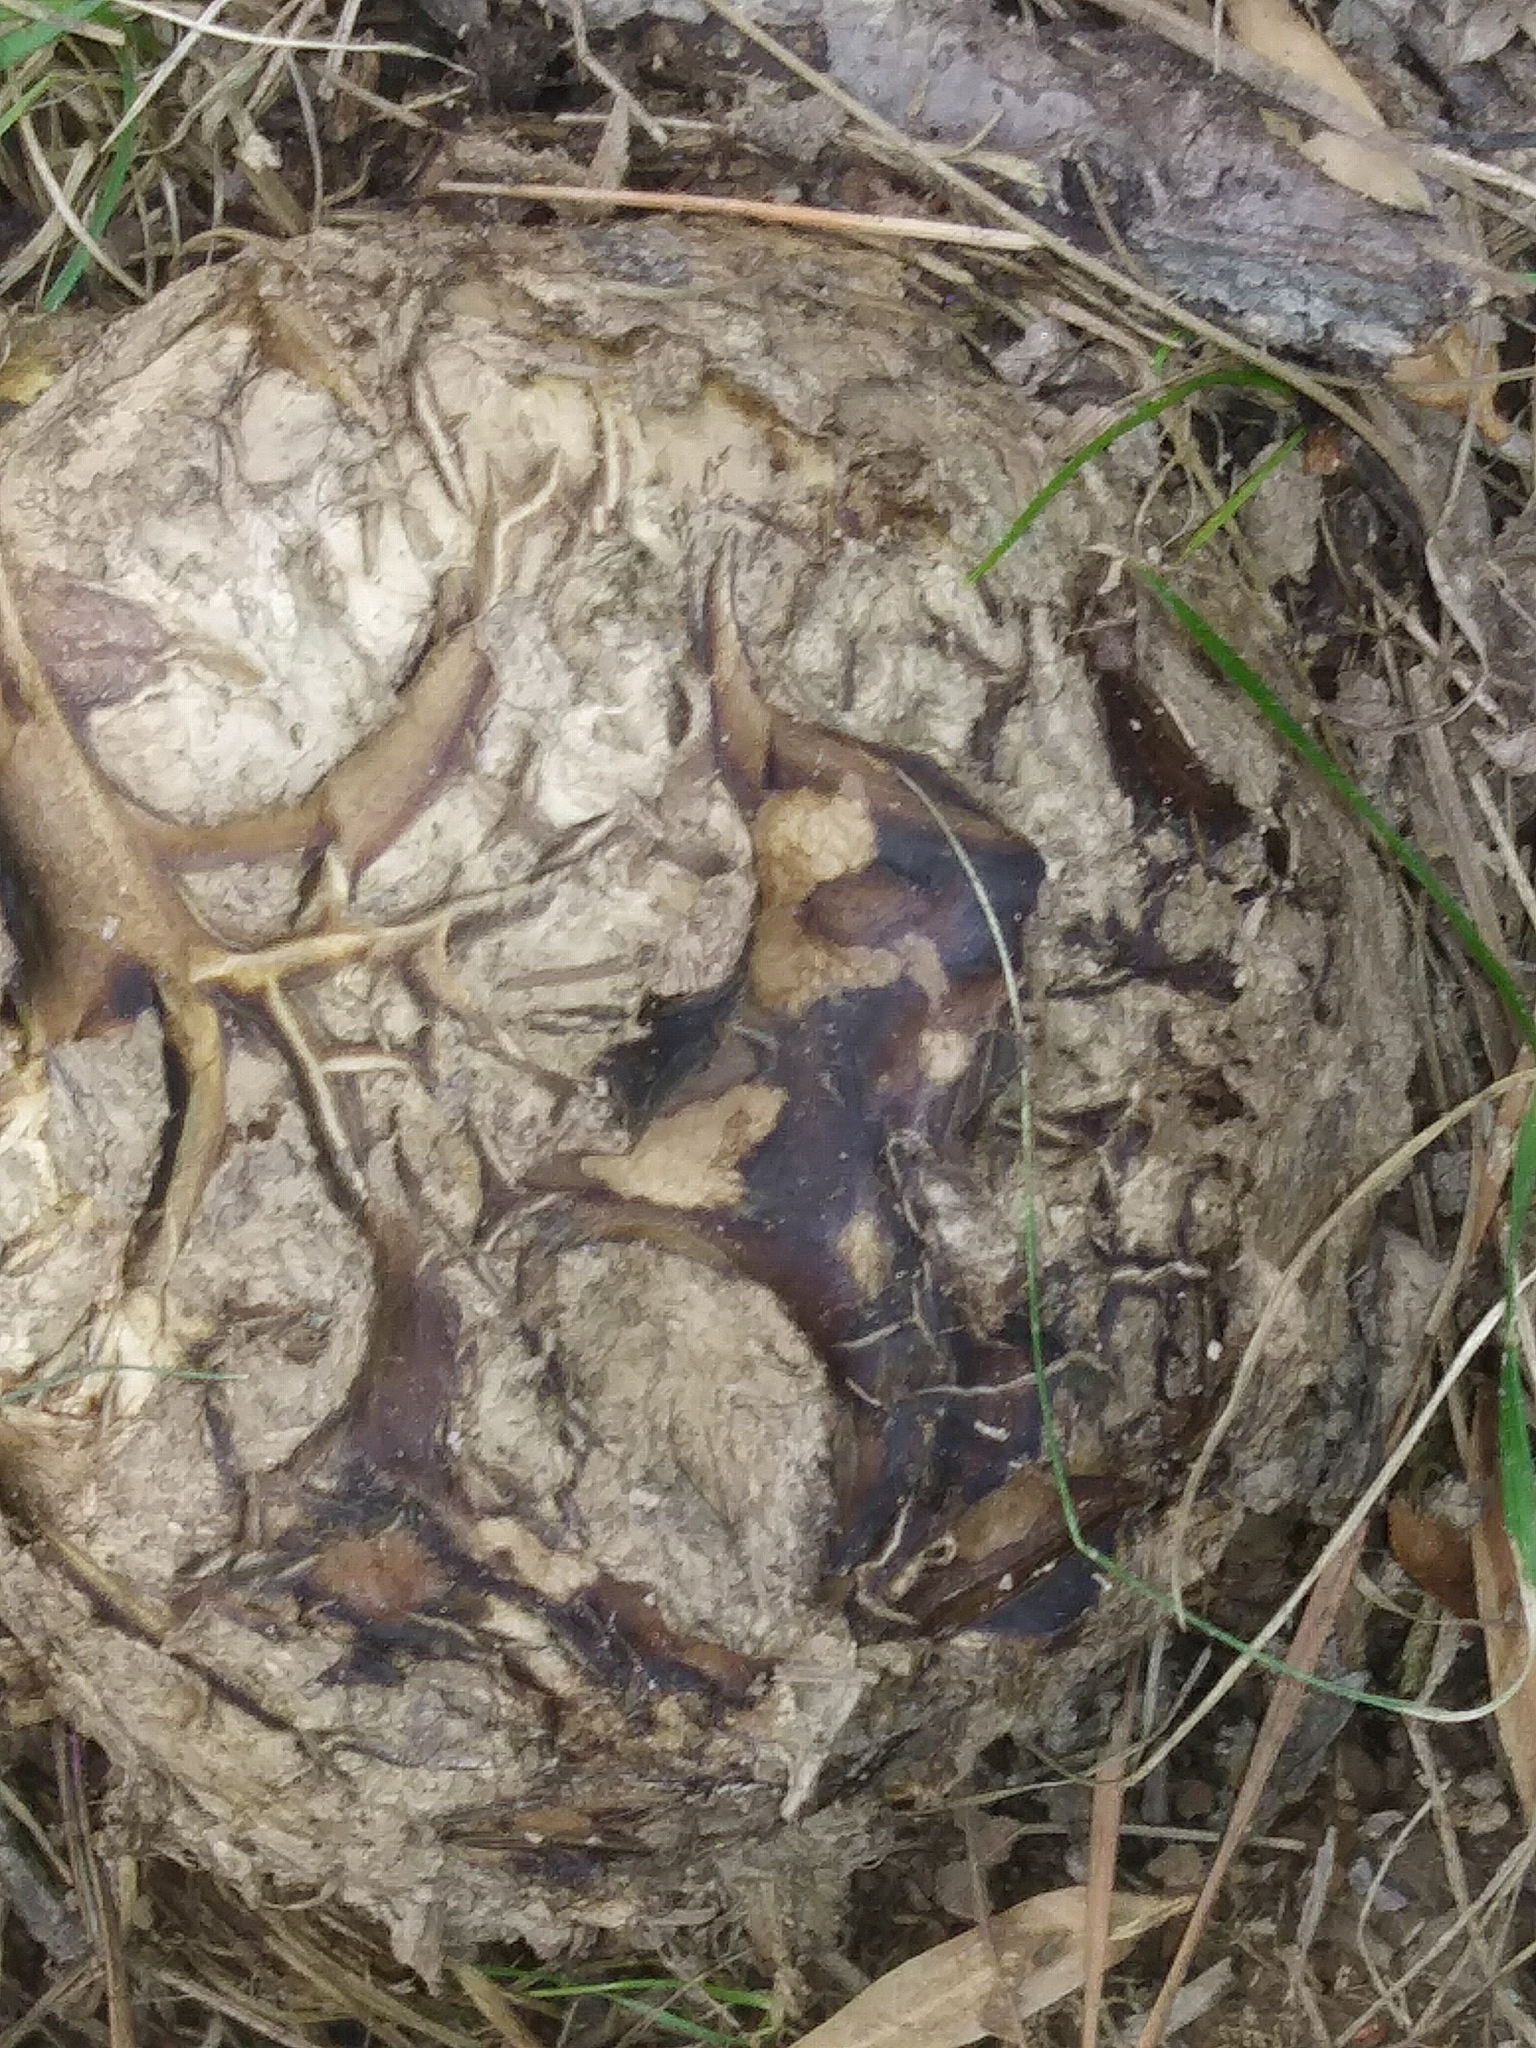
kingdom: Fungi
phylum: Basidiomycota
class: Agaricomycetes
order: Boletales
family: Sclerodermataceae
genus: Pisolithus
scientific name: Pisolithus arhizus
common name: Dyeball
